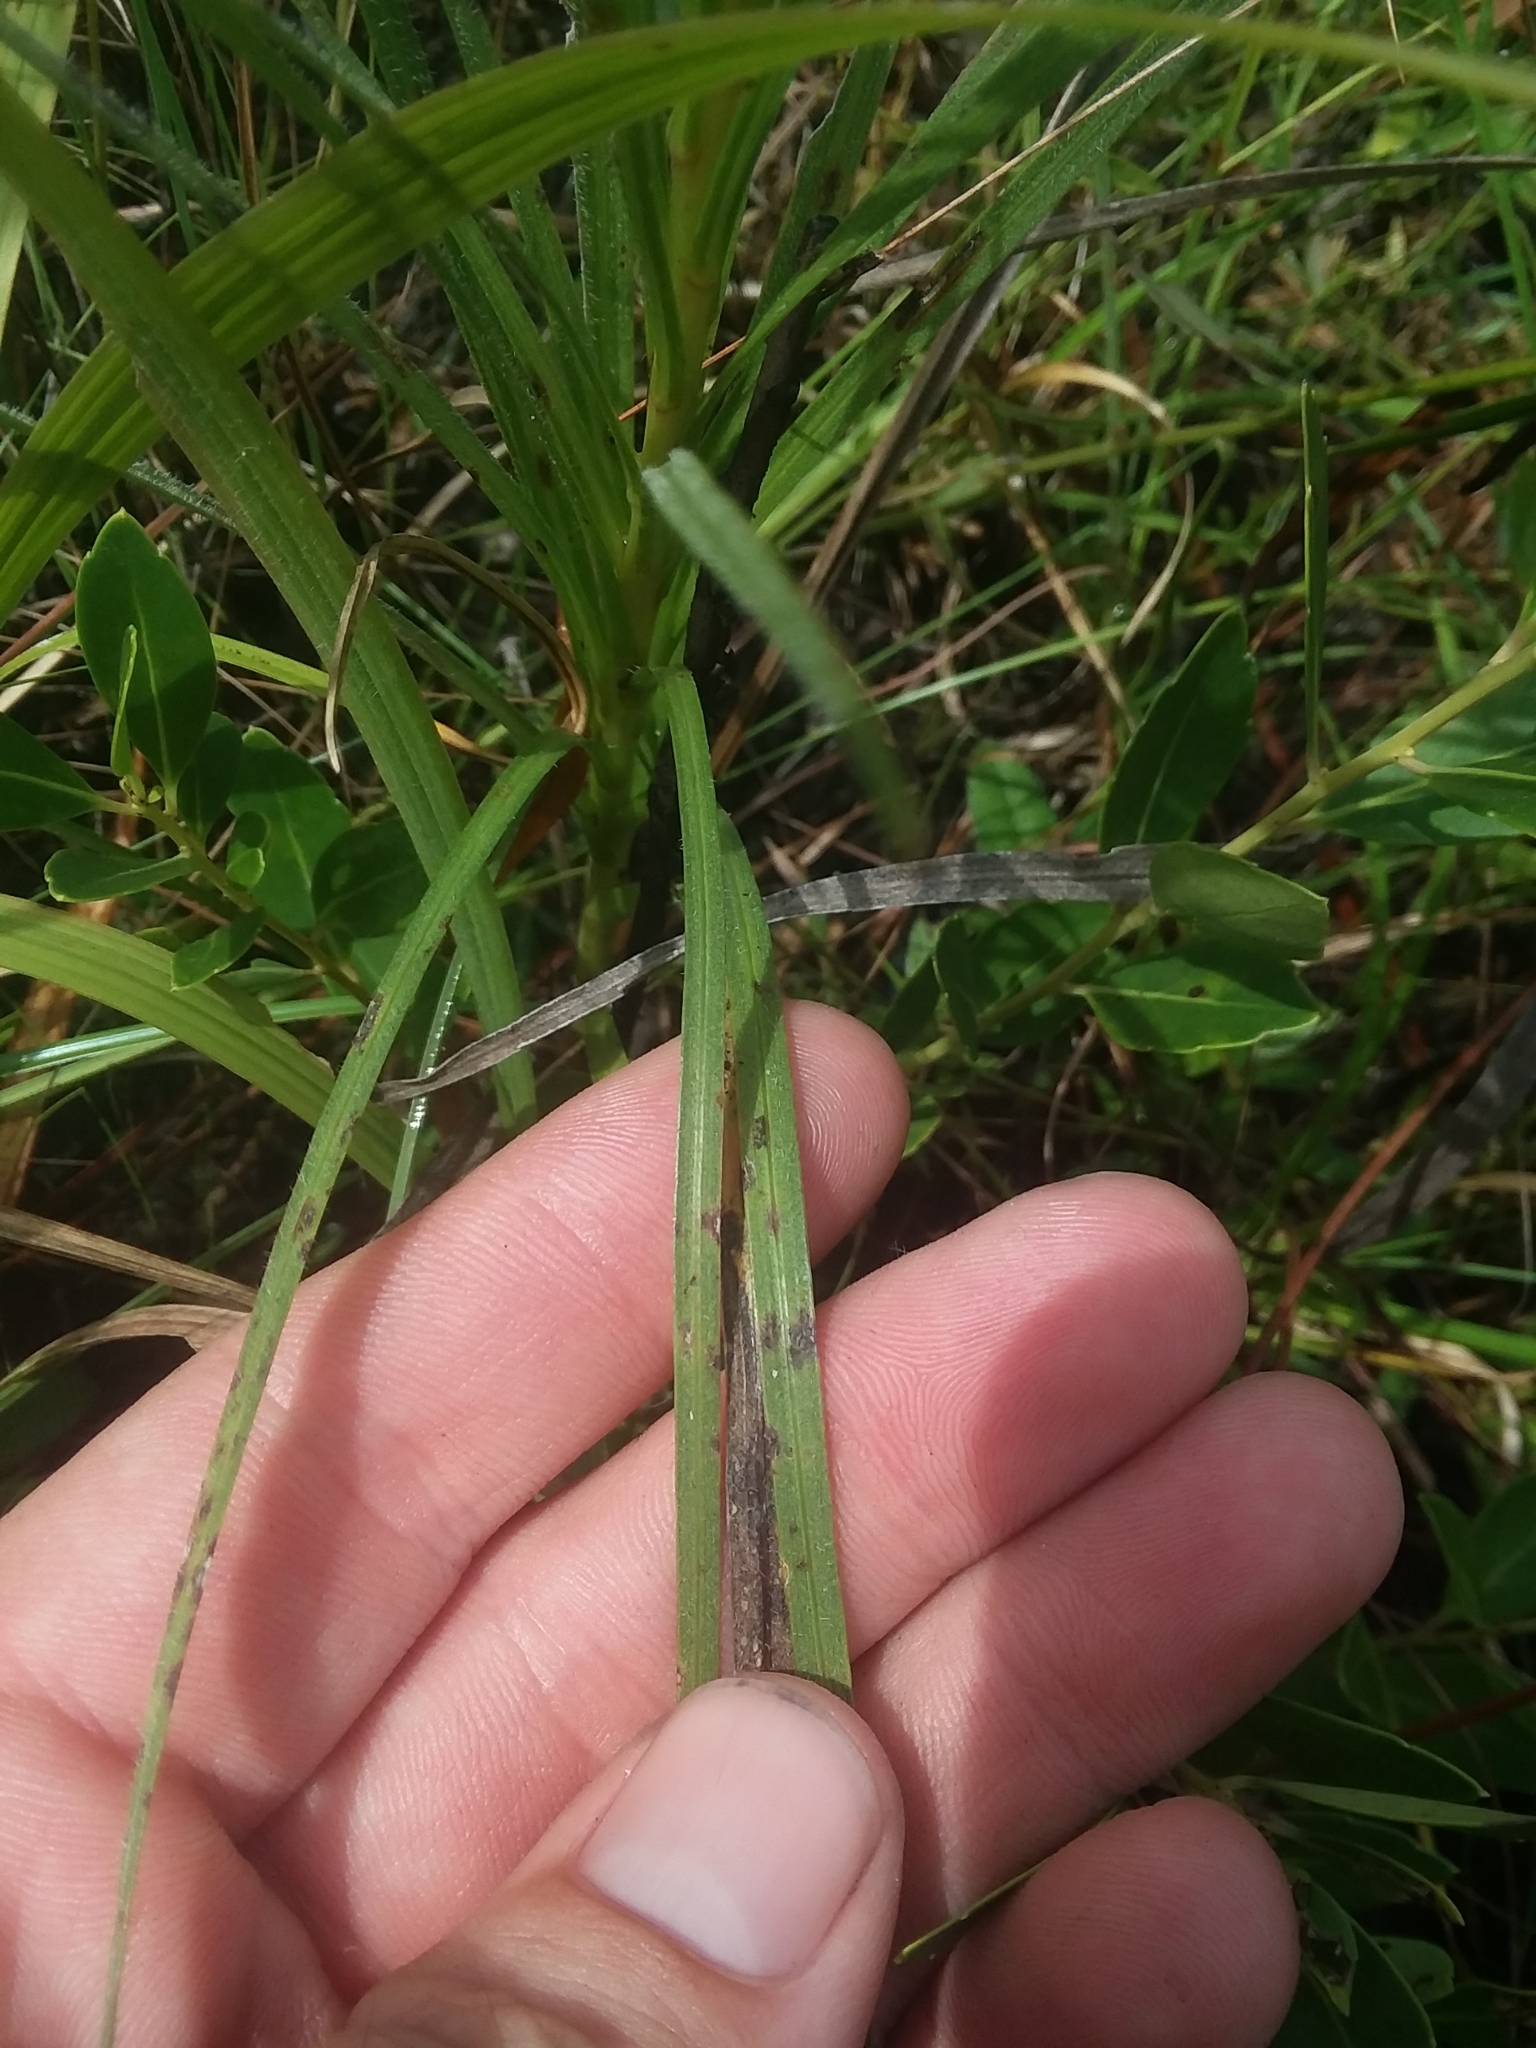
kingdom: Plantae
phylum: Tracheophyta
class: Magnoliopsida
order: Asterales
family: Asteraceae
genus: Liatris
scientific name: Liatris spicata
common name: Florist gayfeather
